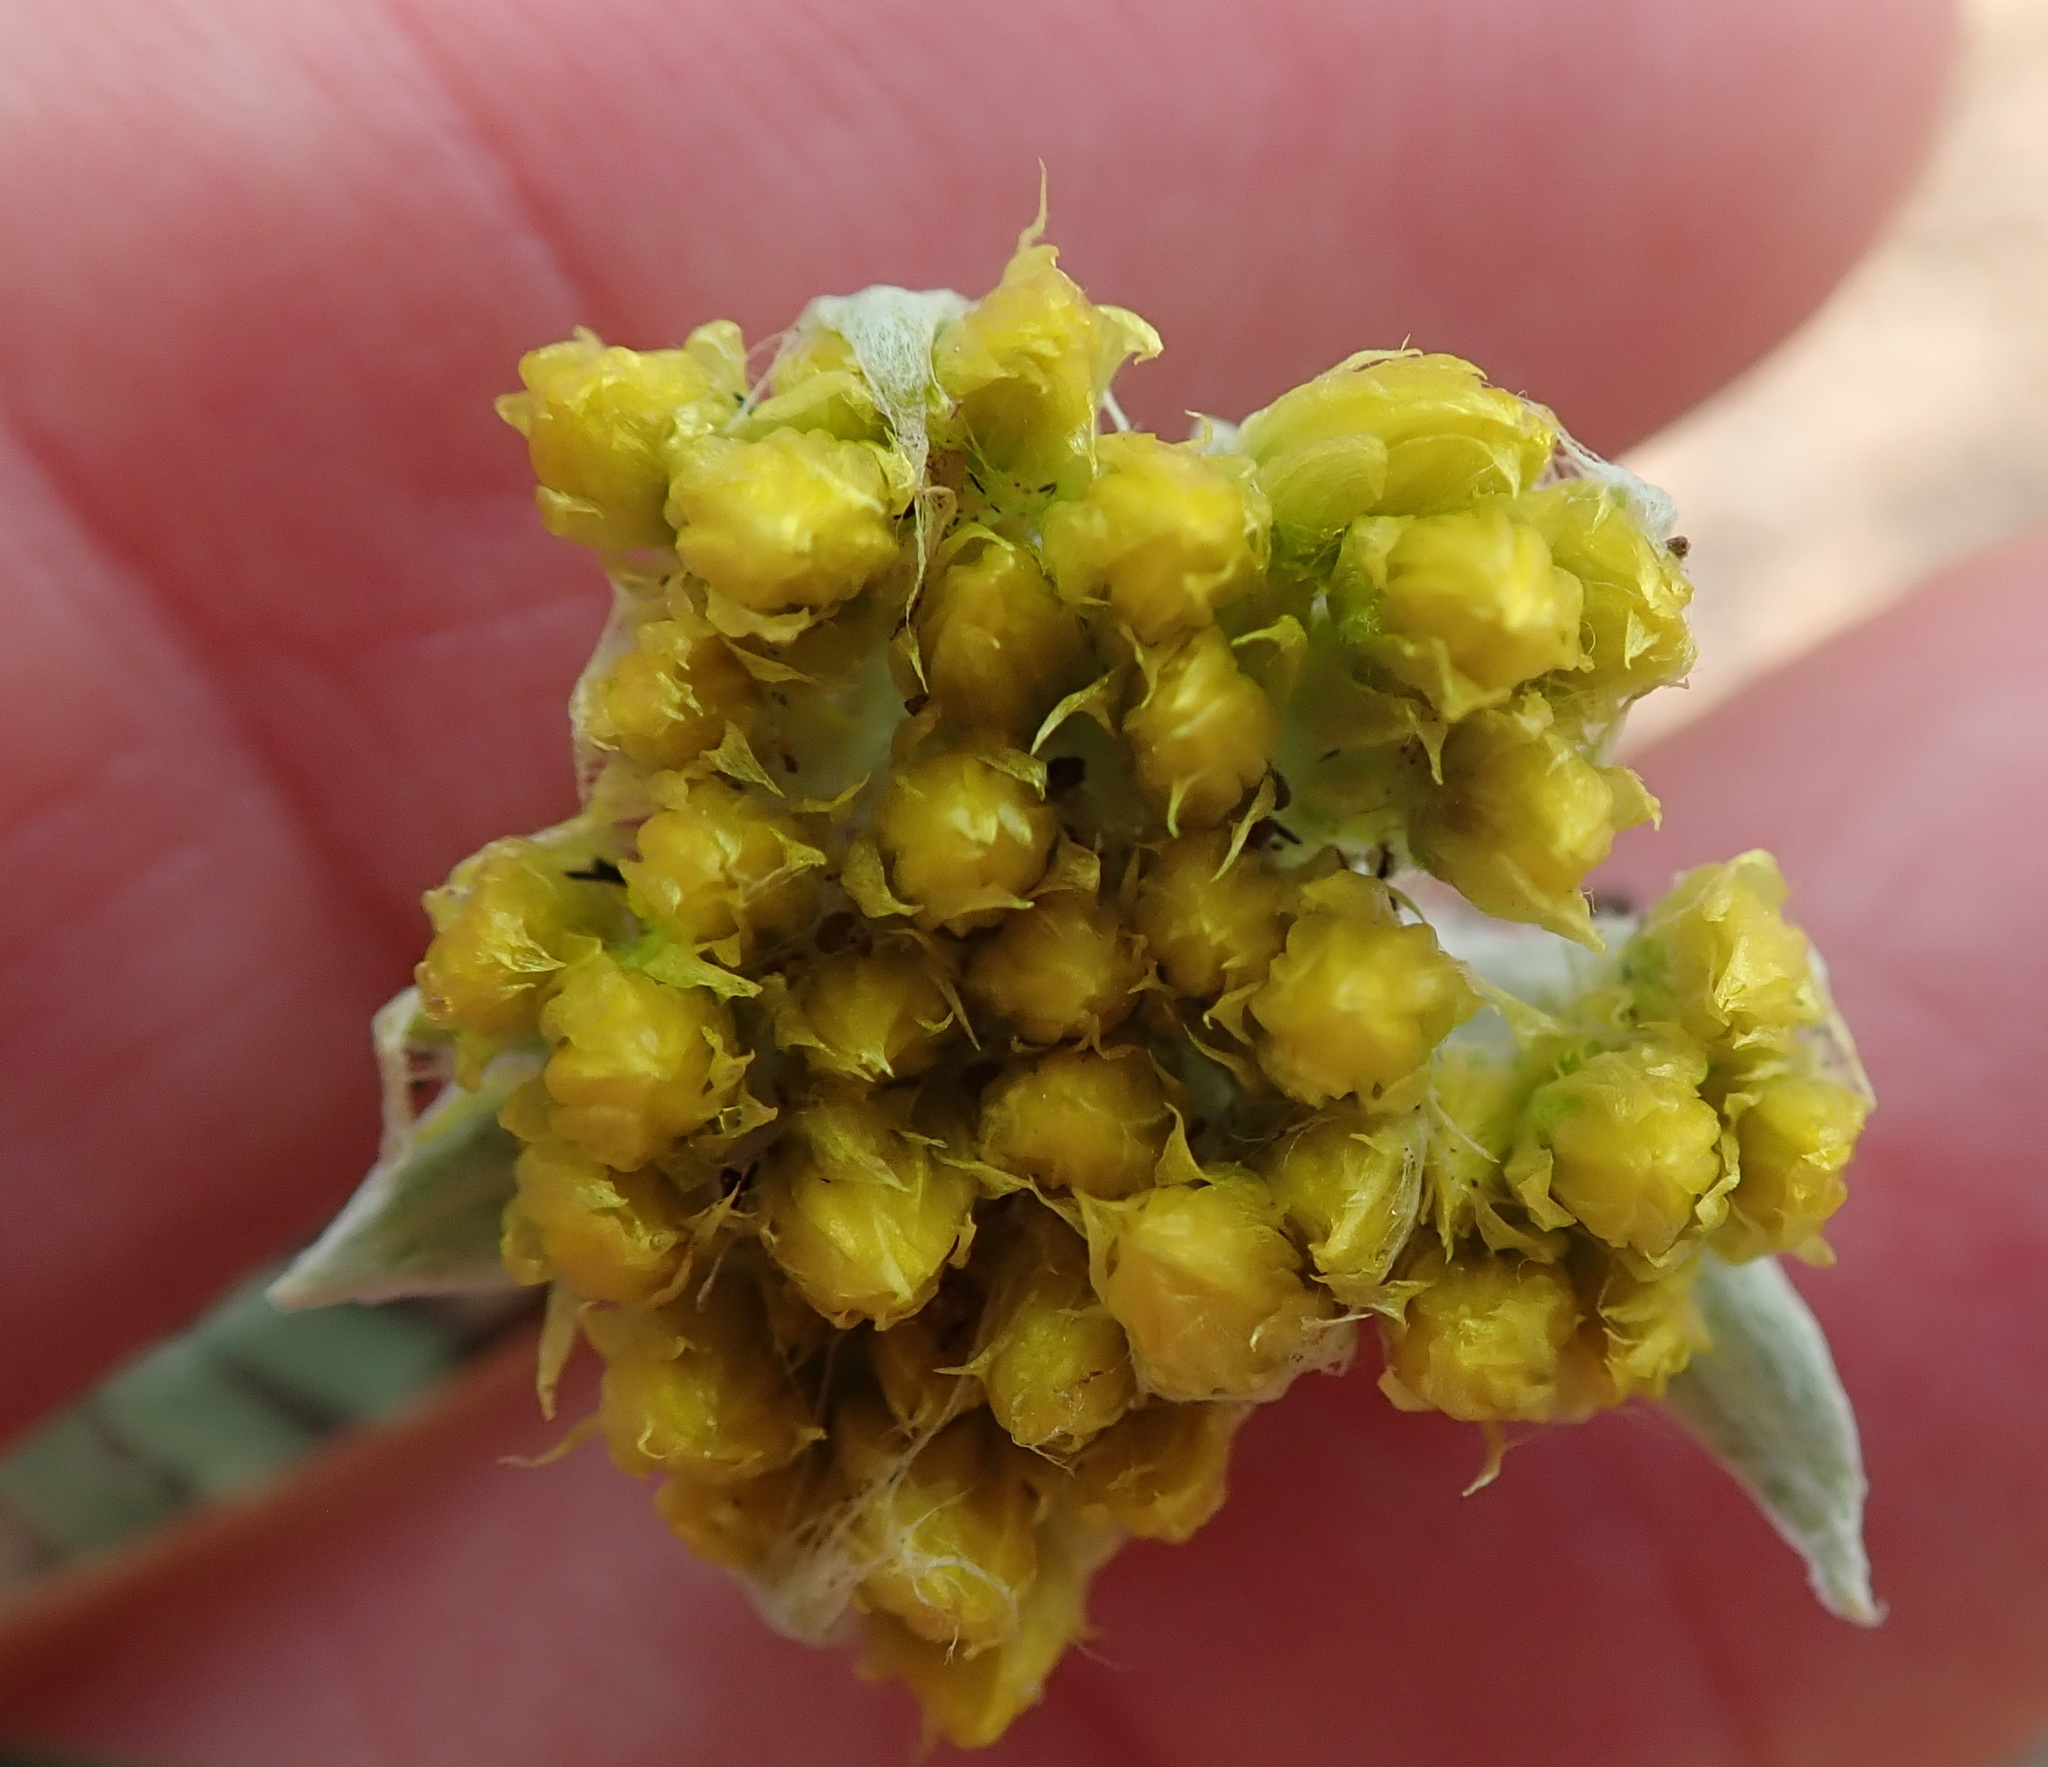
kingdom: Plantae
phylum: Tracheophyta
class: Magnoliopsida
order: Asterales
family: Asteraceae
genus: Helichrysum
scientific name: Helichrysum oreophilum
